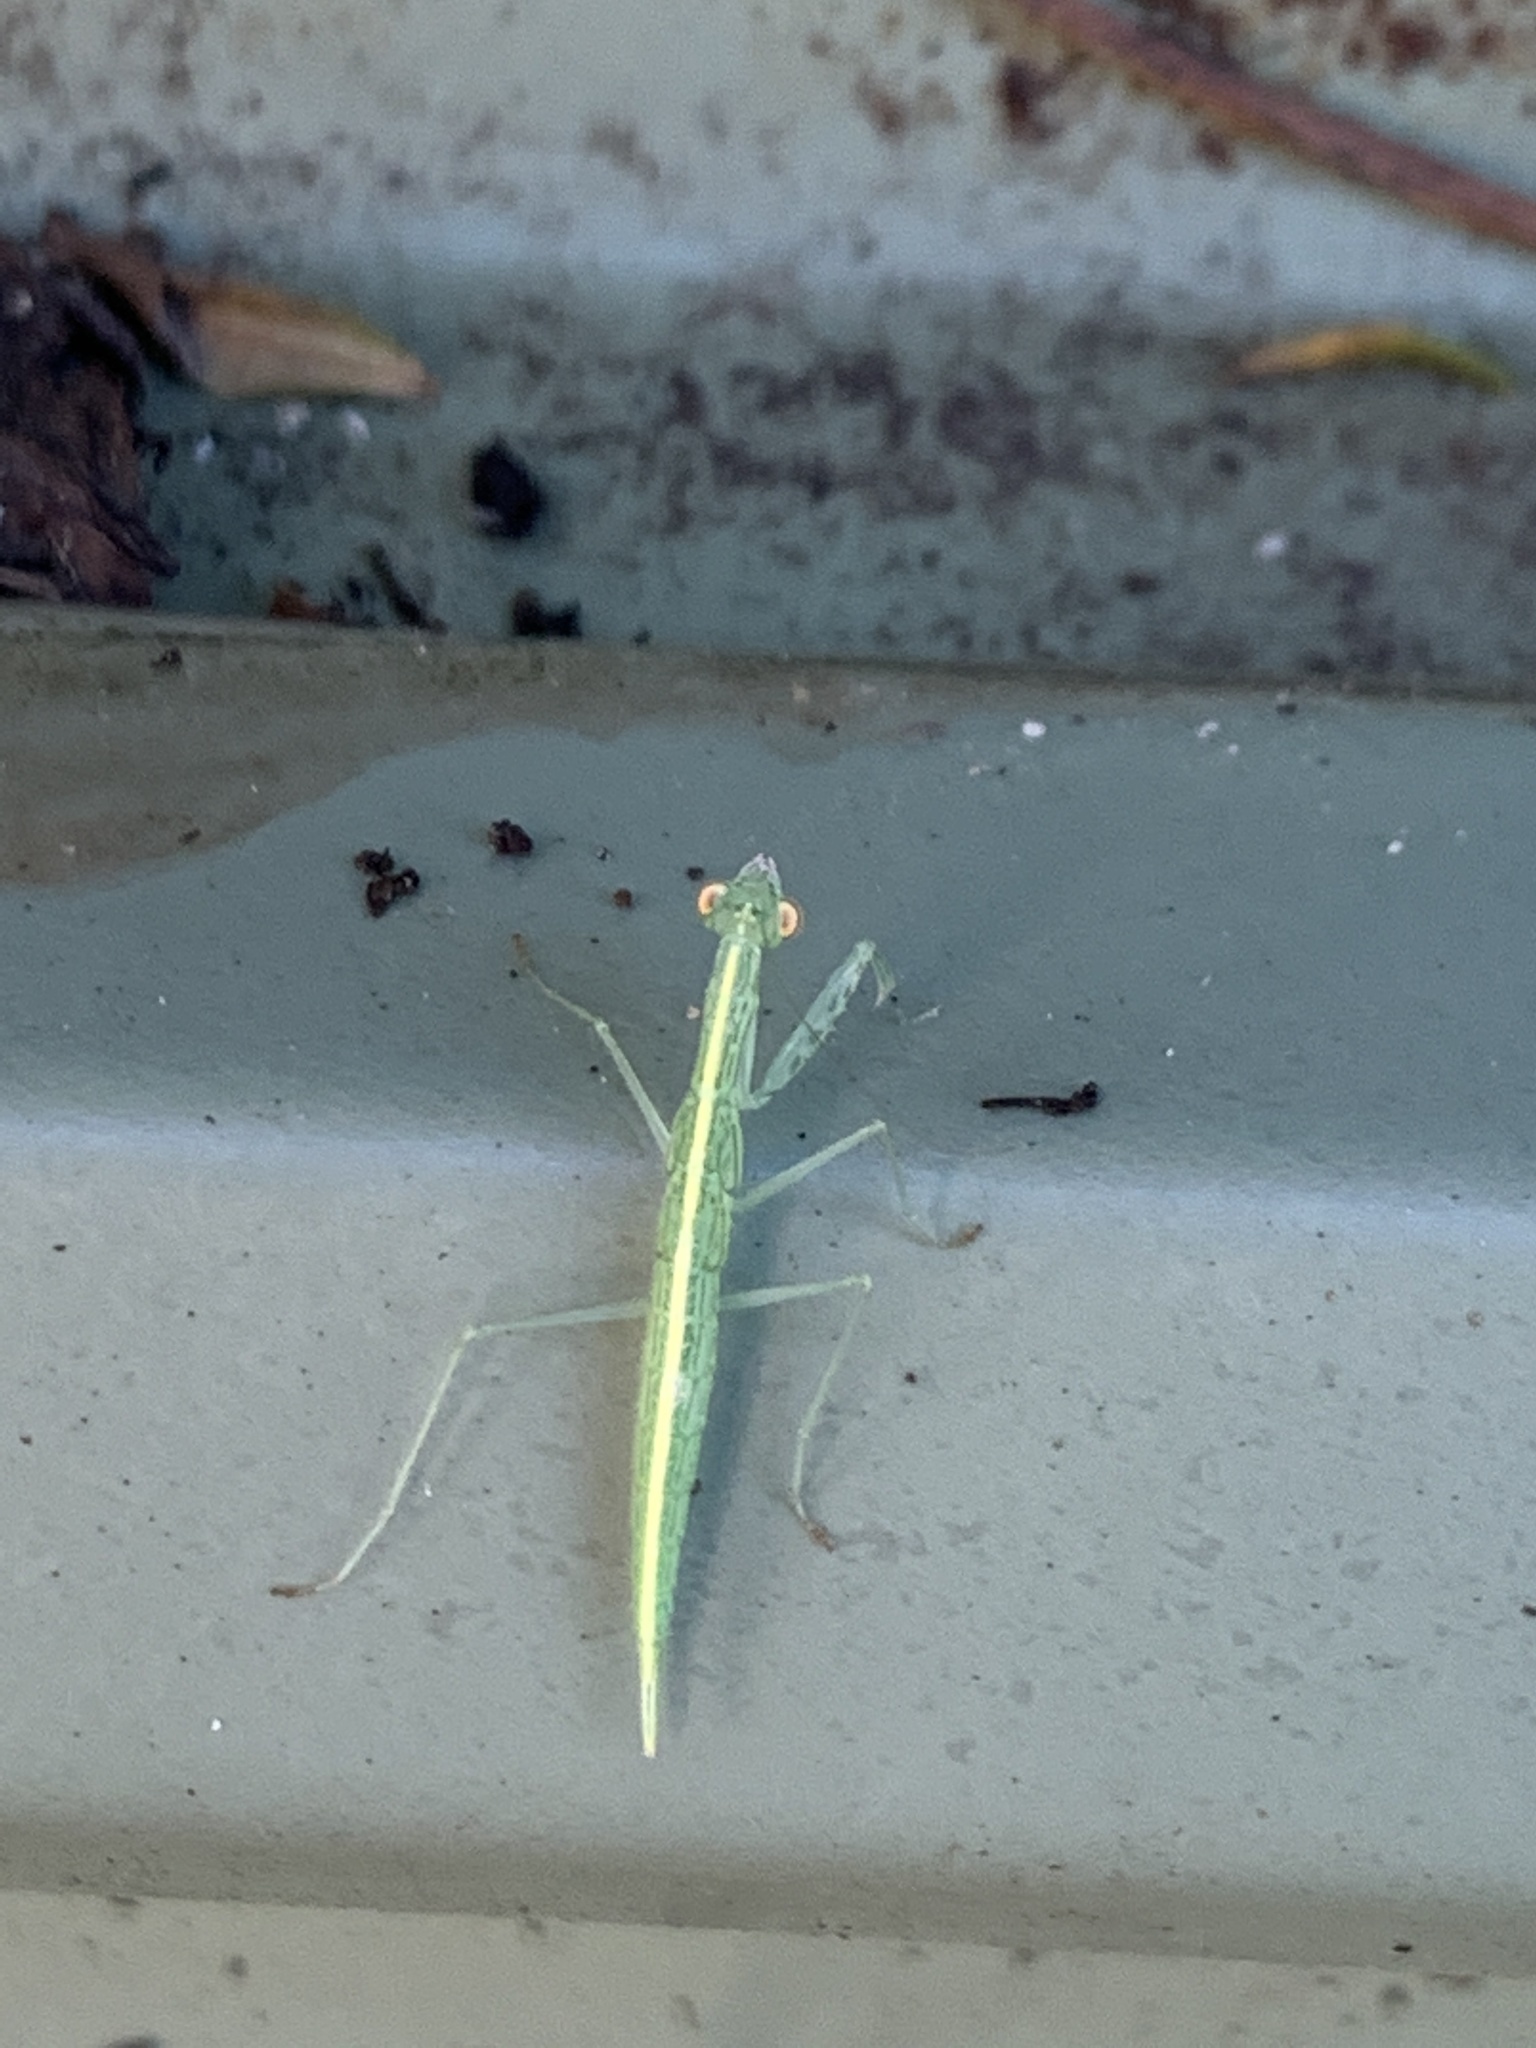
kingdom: Animalia
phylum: Arthropoda
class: Insecta
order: Mantodea
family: Nanomantidae
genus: Kongobatha
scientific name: Kongobatha diademata
